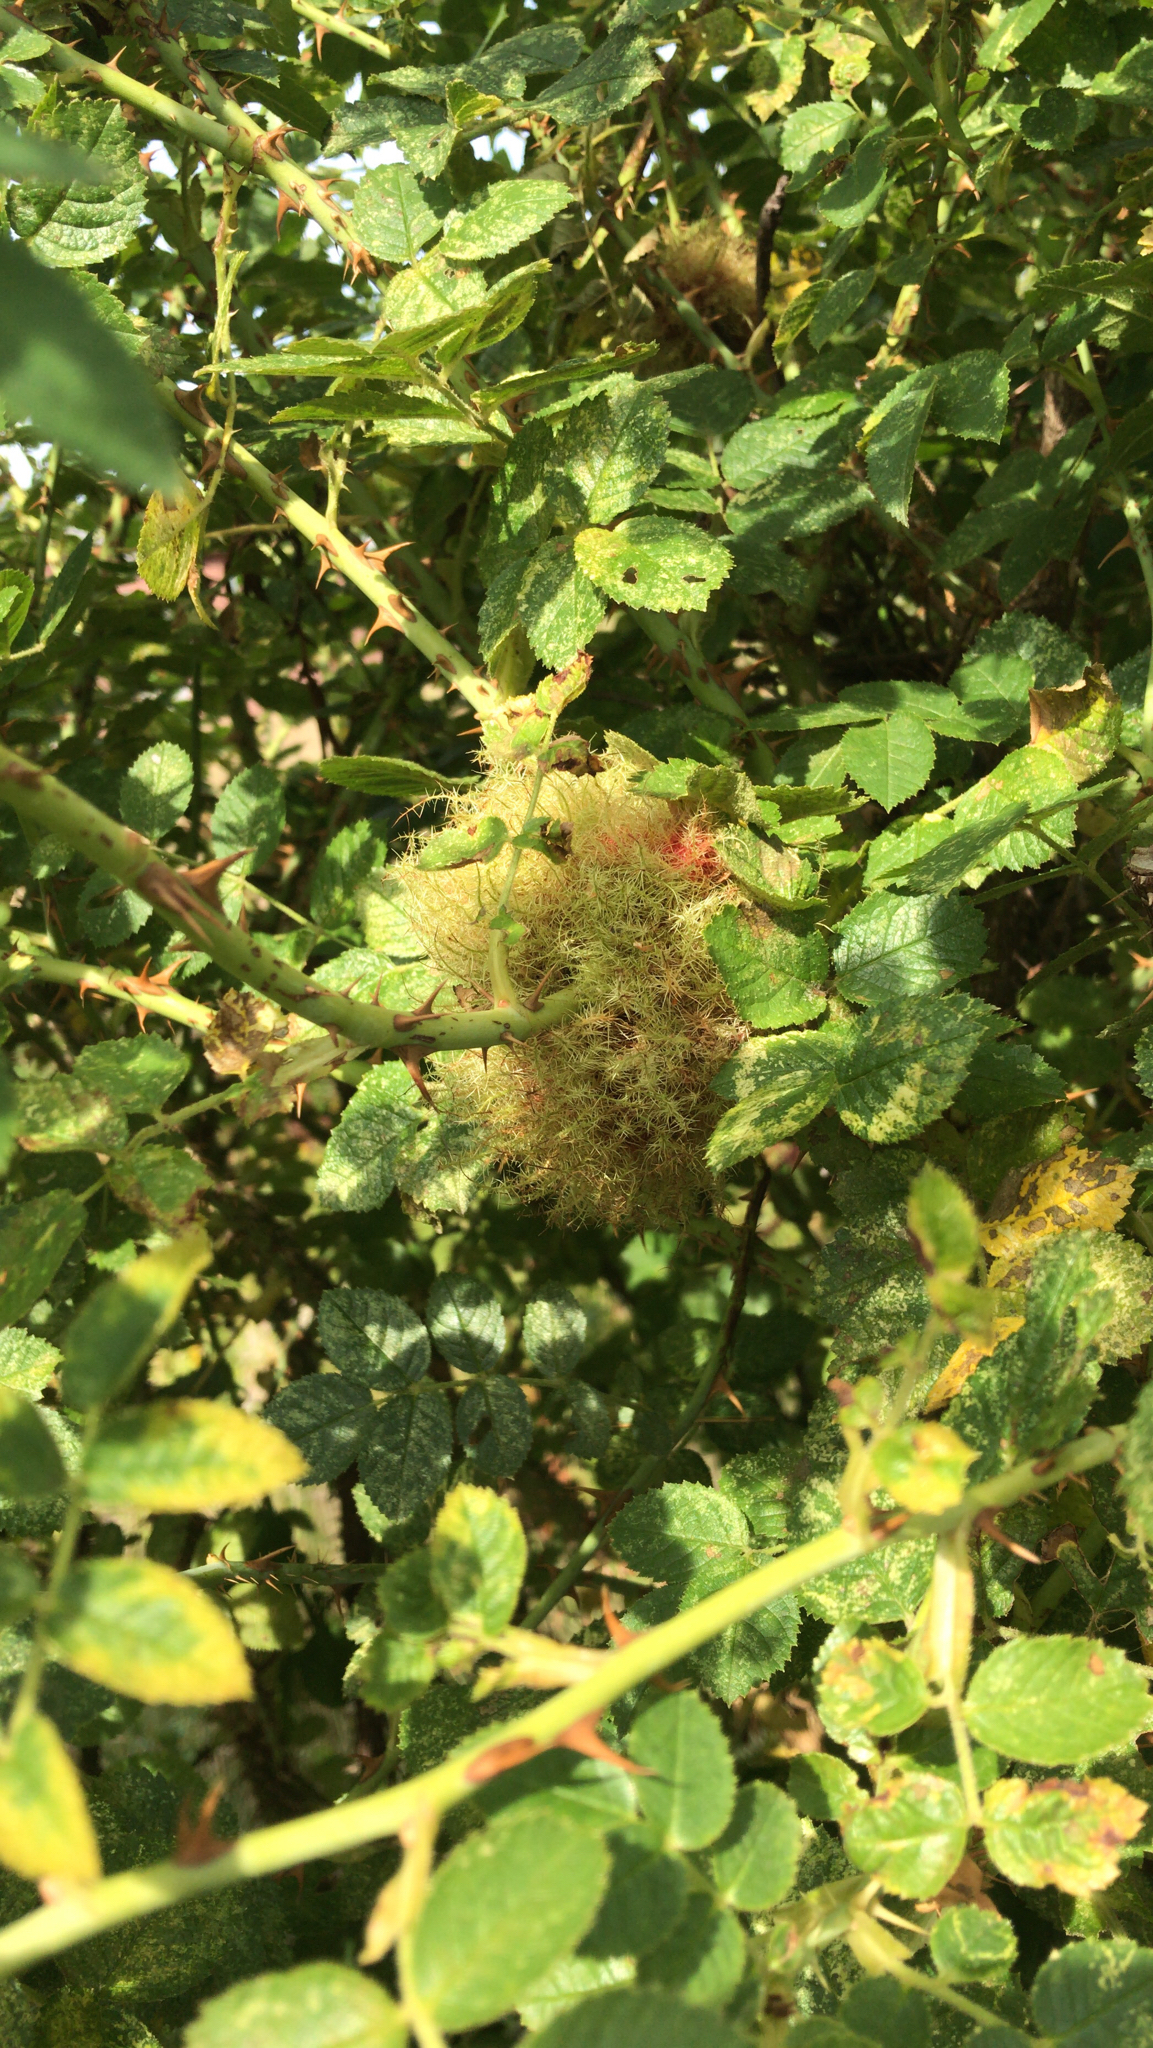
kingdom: Animalia
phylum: Arthropoda
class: Insecta
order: Hymenoptera
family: Cynipidae
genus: Diplolepis
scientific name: Diplolepis rosae
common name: Bedeguar gall
